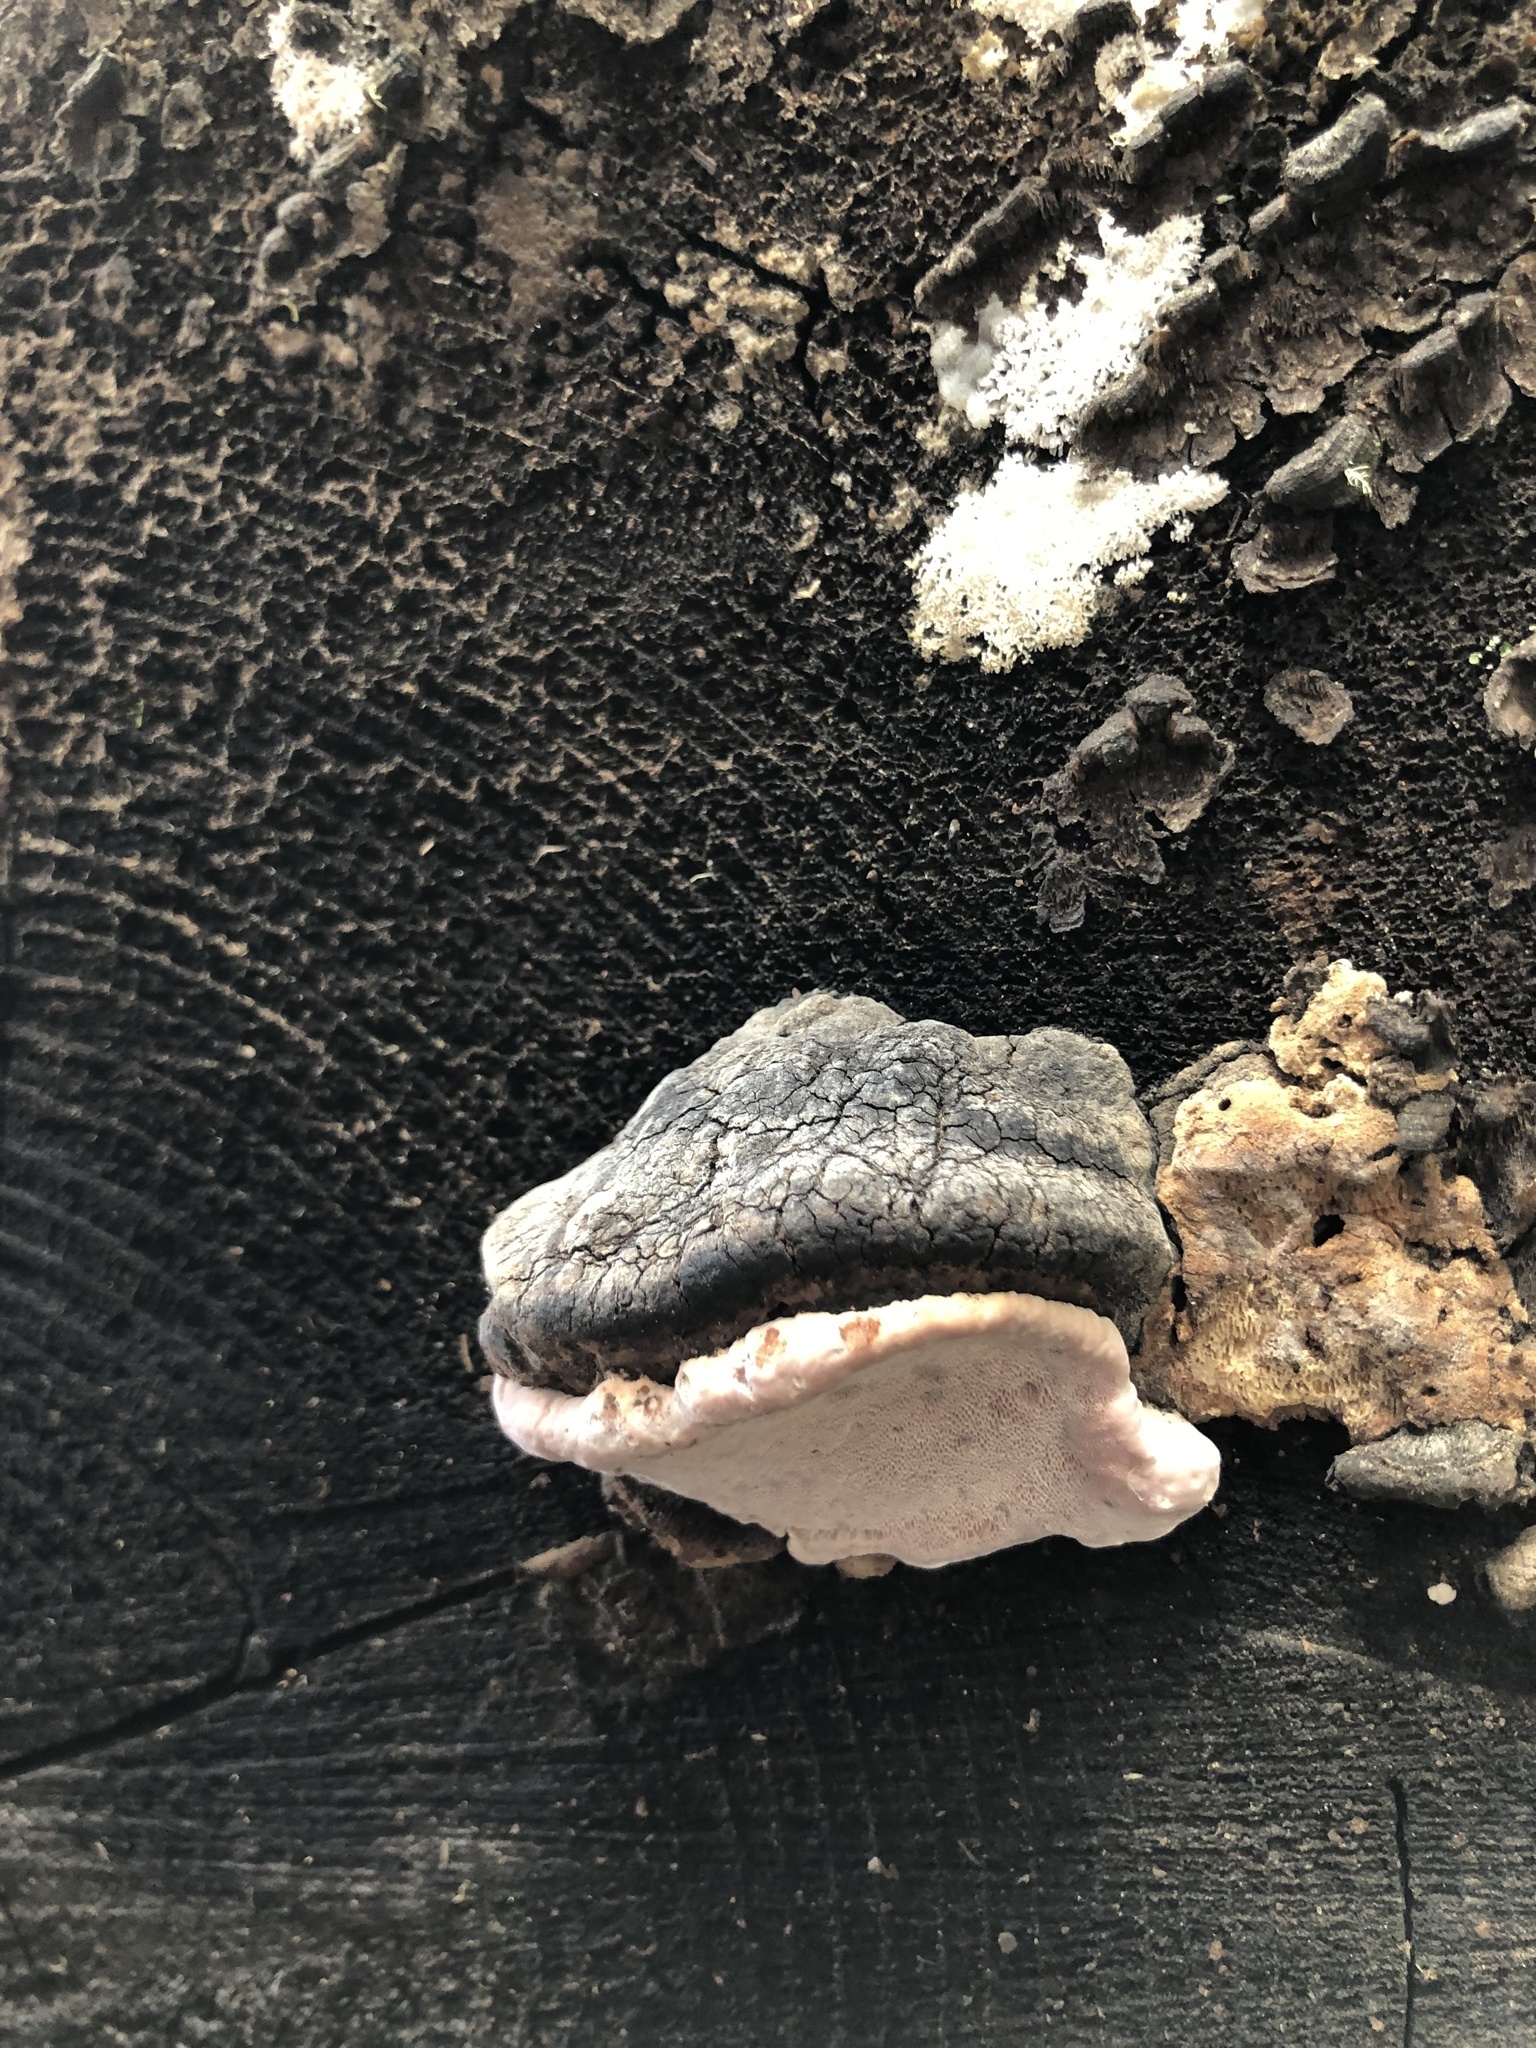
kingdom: Fungi
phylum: Basidiomycota
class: Agaricomycetes
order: Polyporales
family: Fomitopsidaceae
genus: Rhodofomes
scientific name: Rhodofomes roseus
